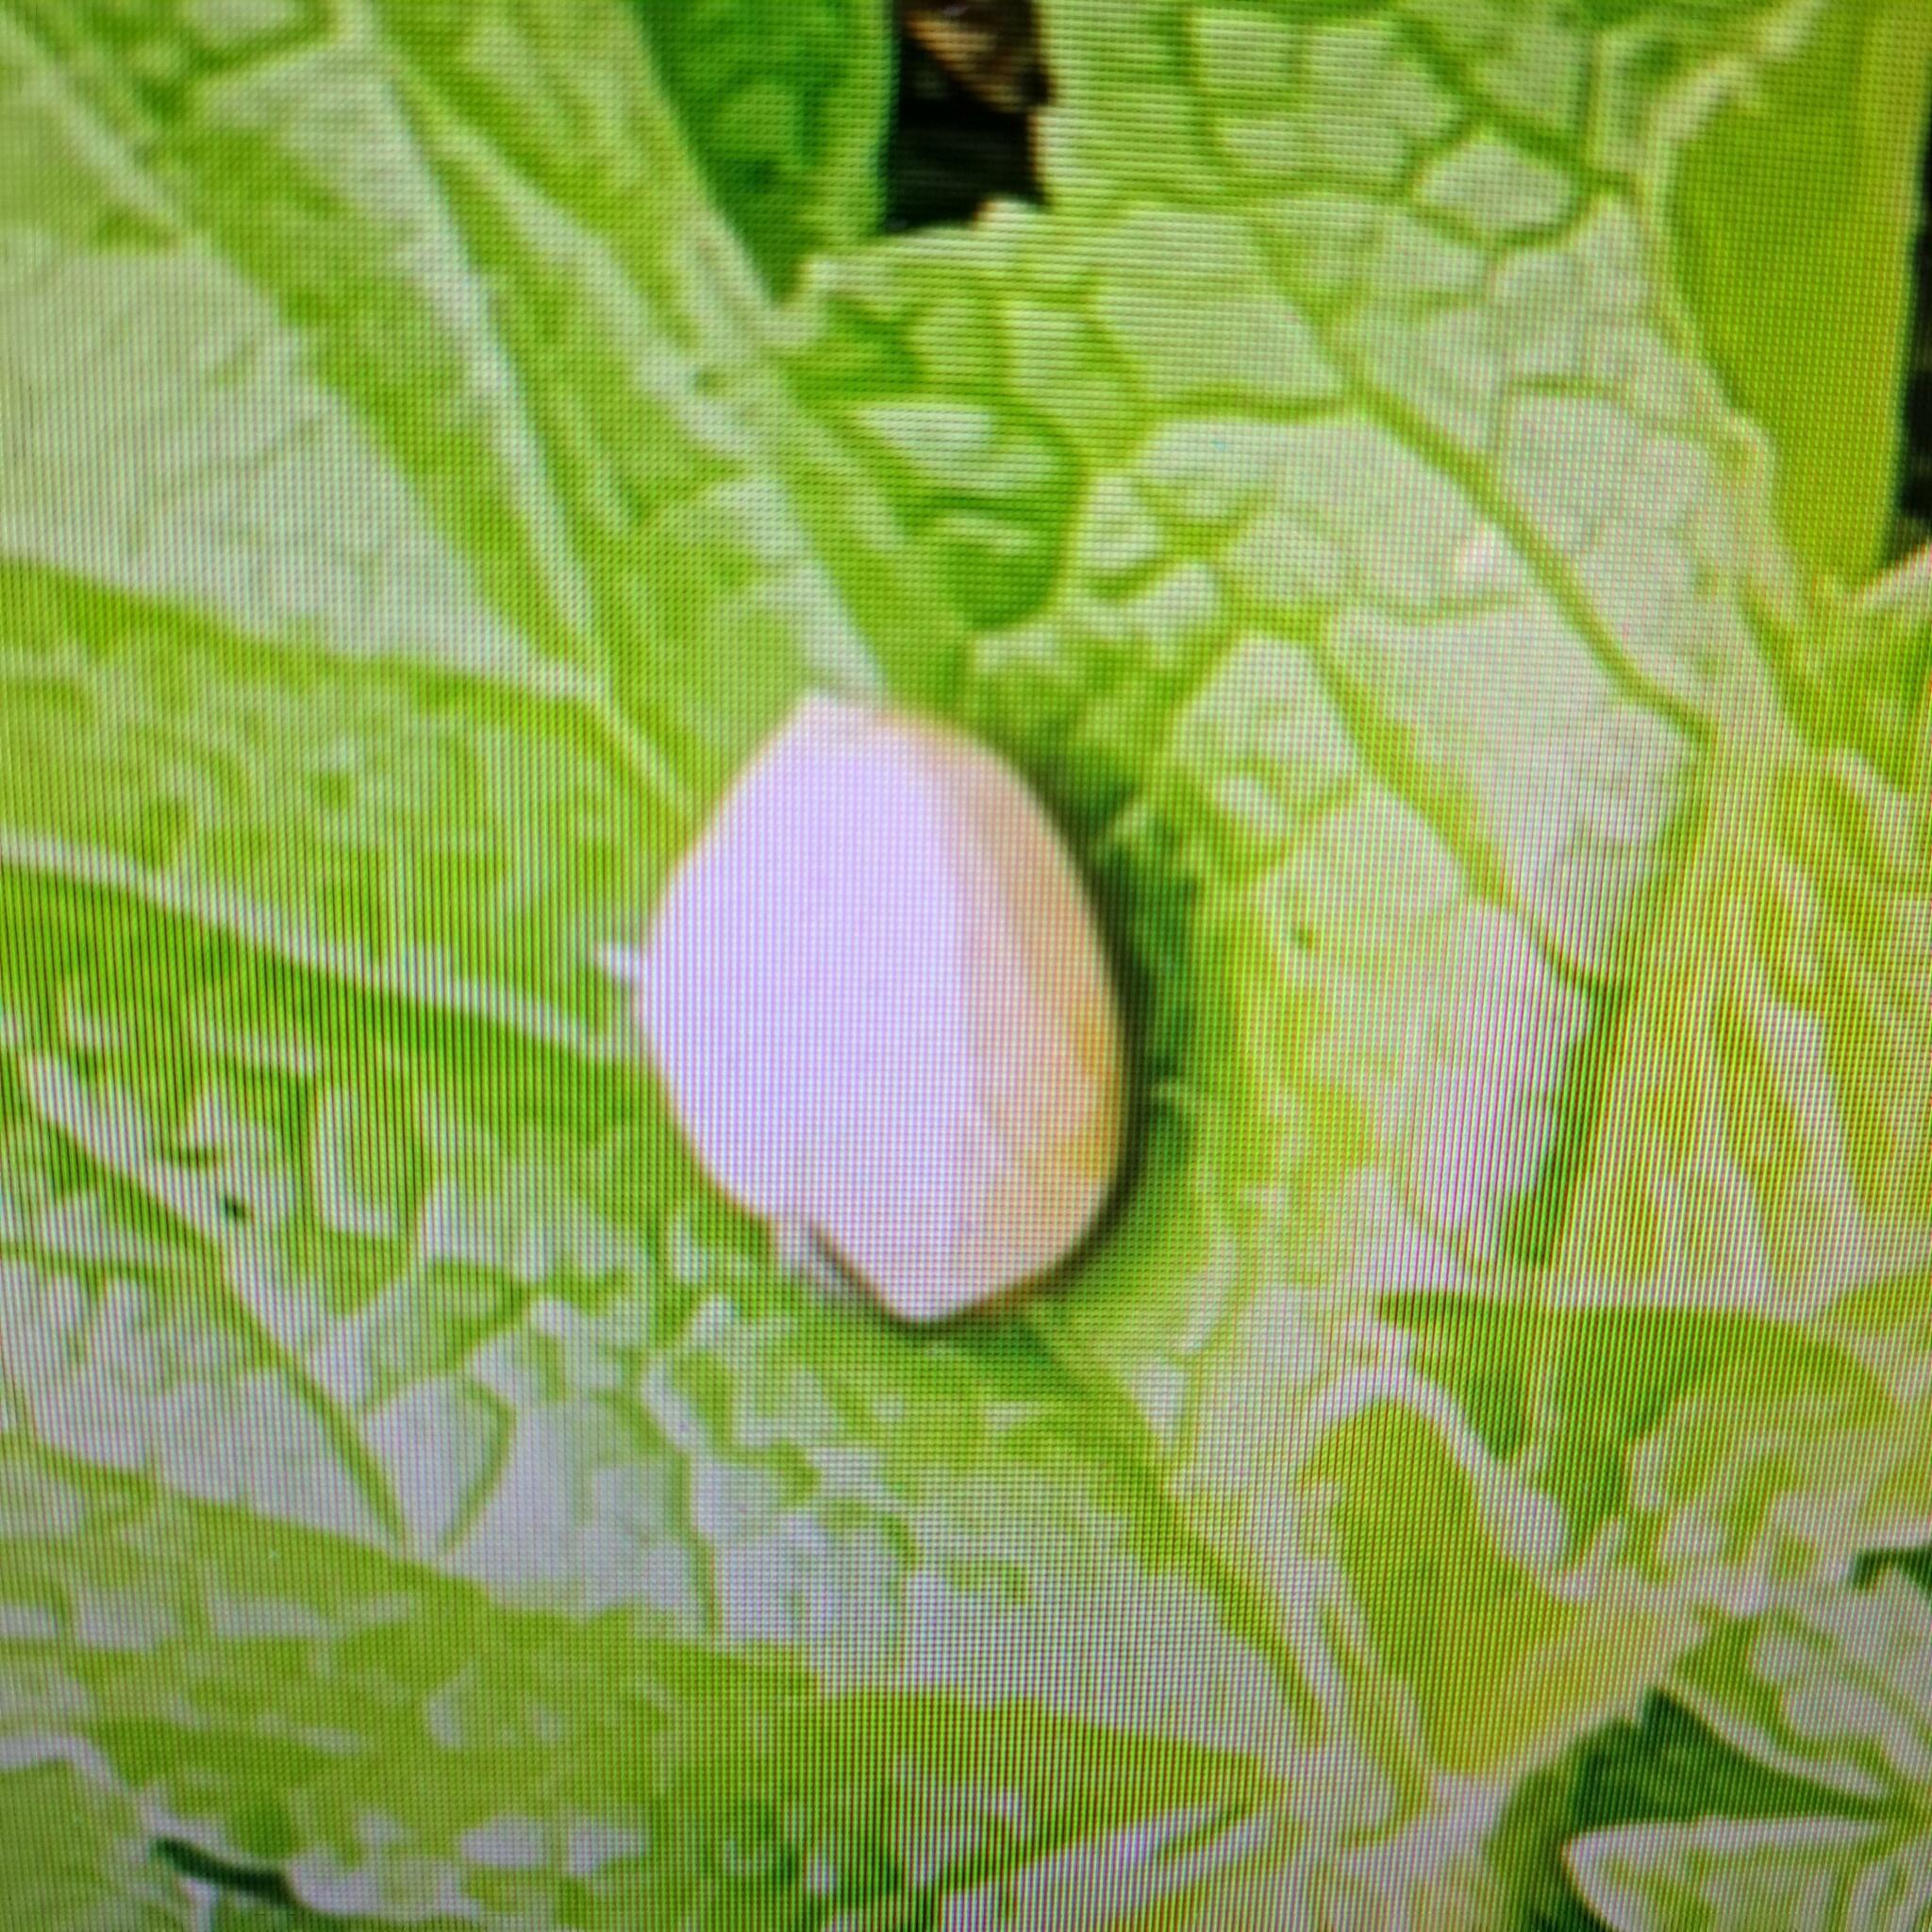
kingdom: Animalia
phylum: Mollusca
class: Gastropoda
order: Stylommatophora
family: Hygromiidae
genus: Monacha
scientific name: Monacha cantiana
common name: Kentish snail
